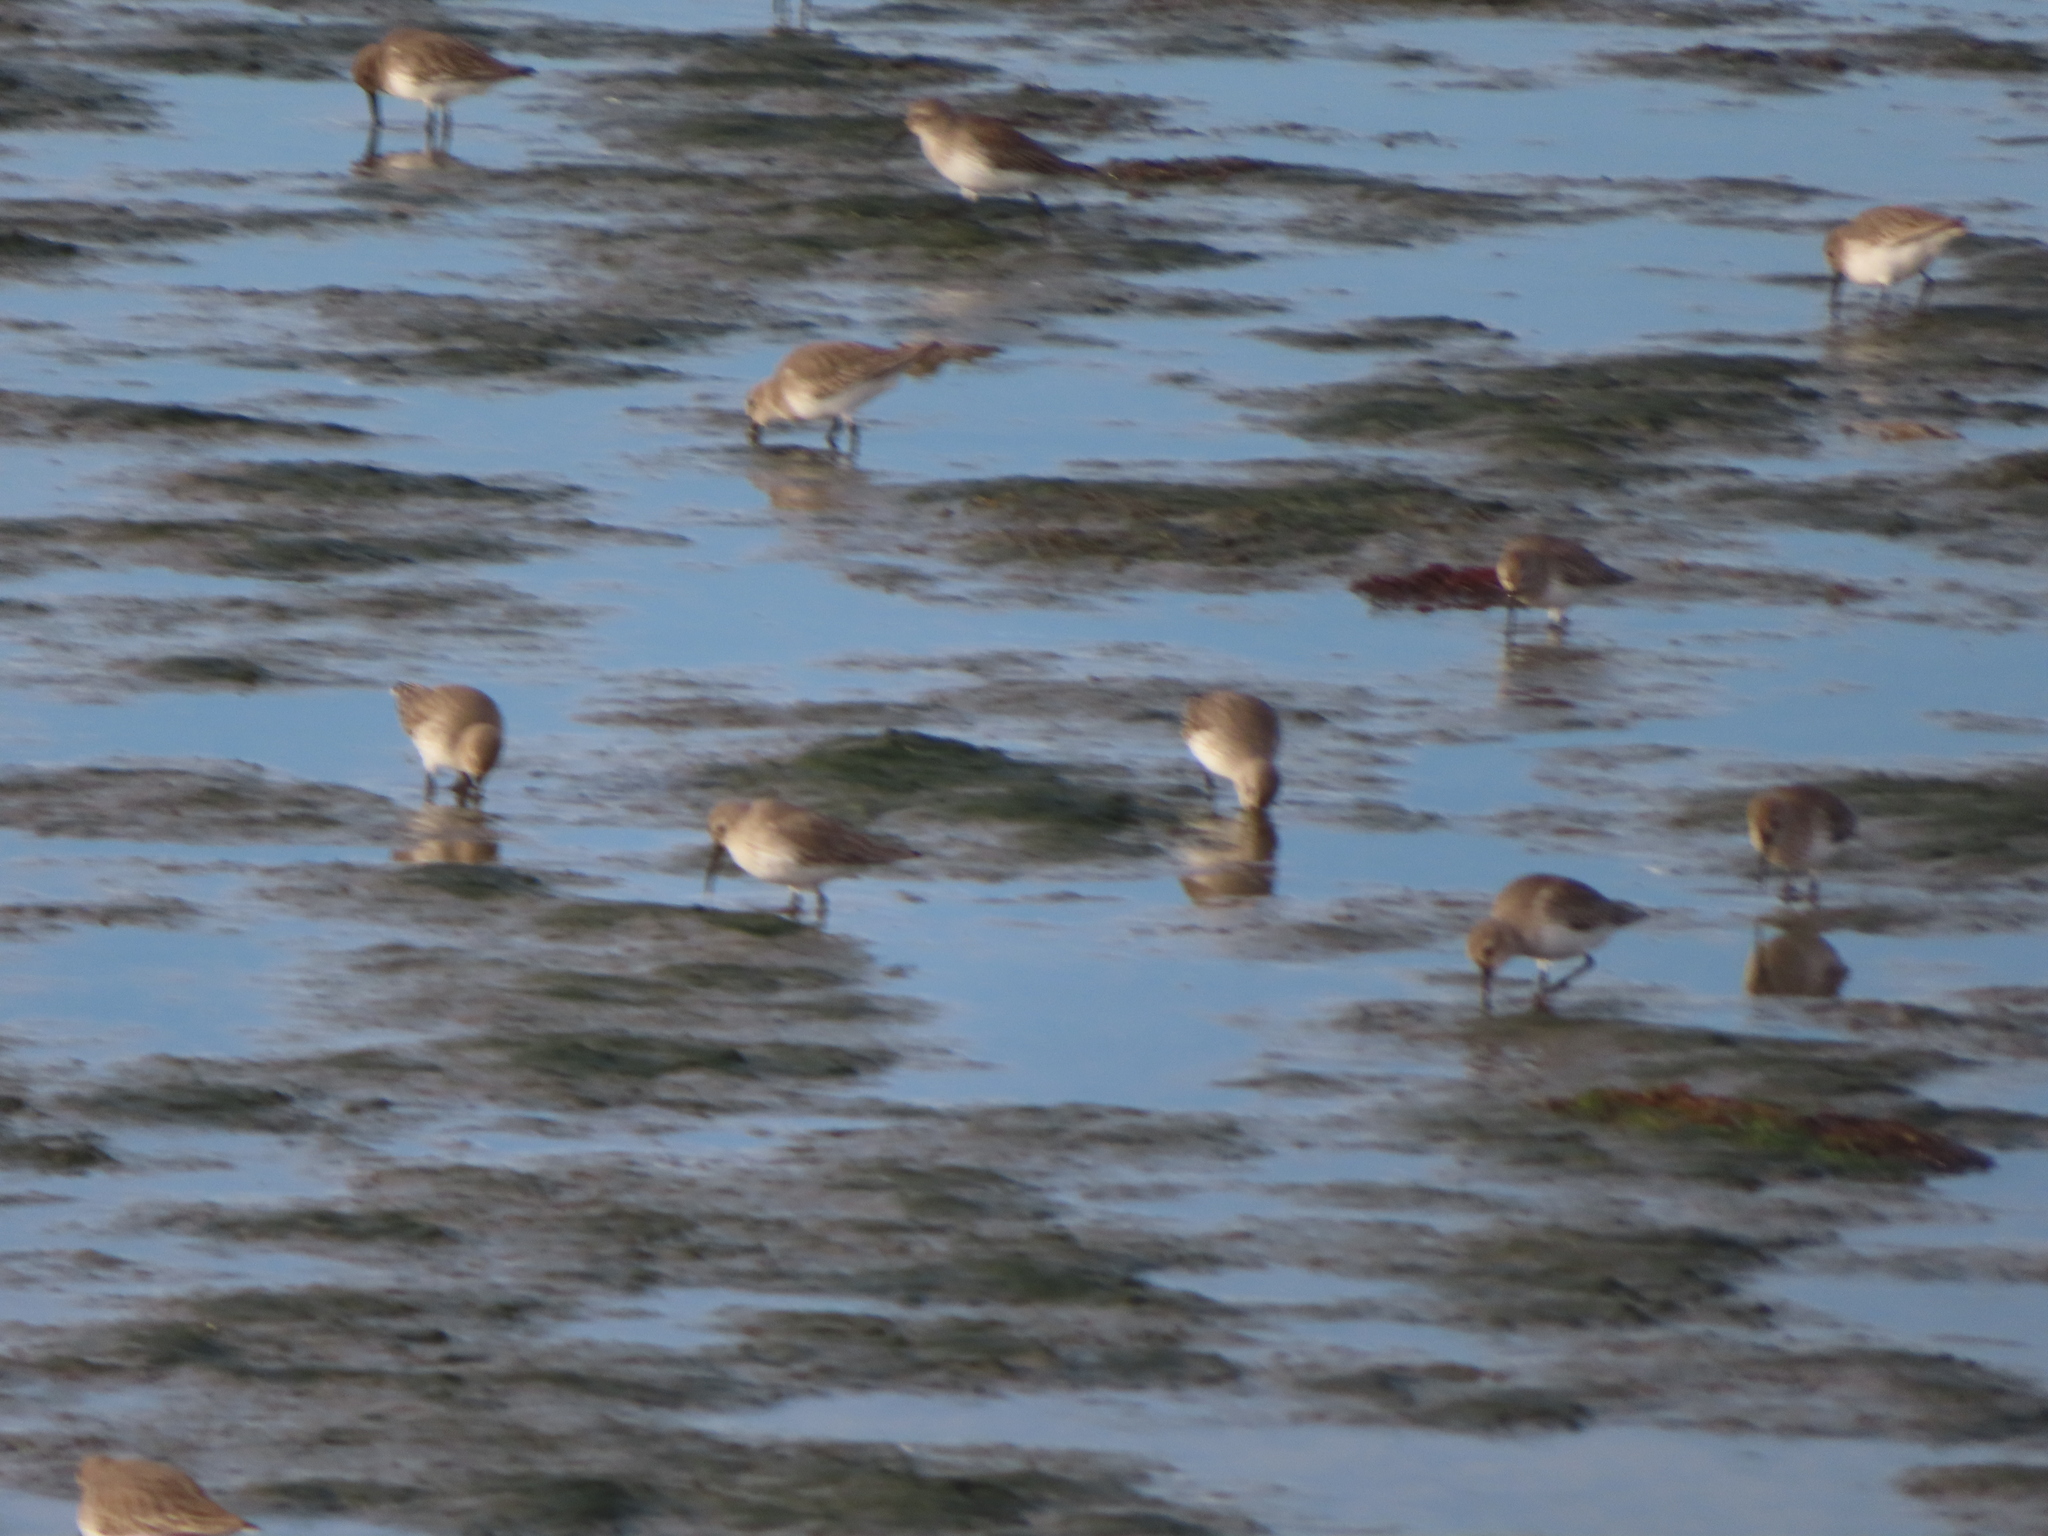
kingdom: Animalia
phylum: Chordata
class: Aves
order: Charadriiformes
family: Scolopacidae
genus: Calidris
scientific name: Calidris alpina
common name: Dunlin
